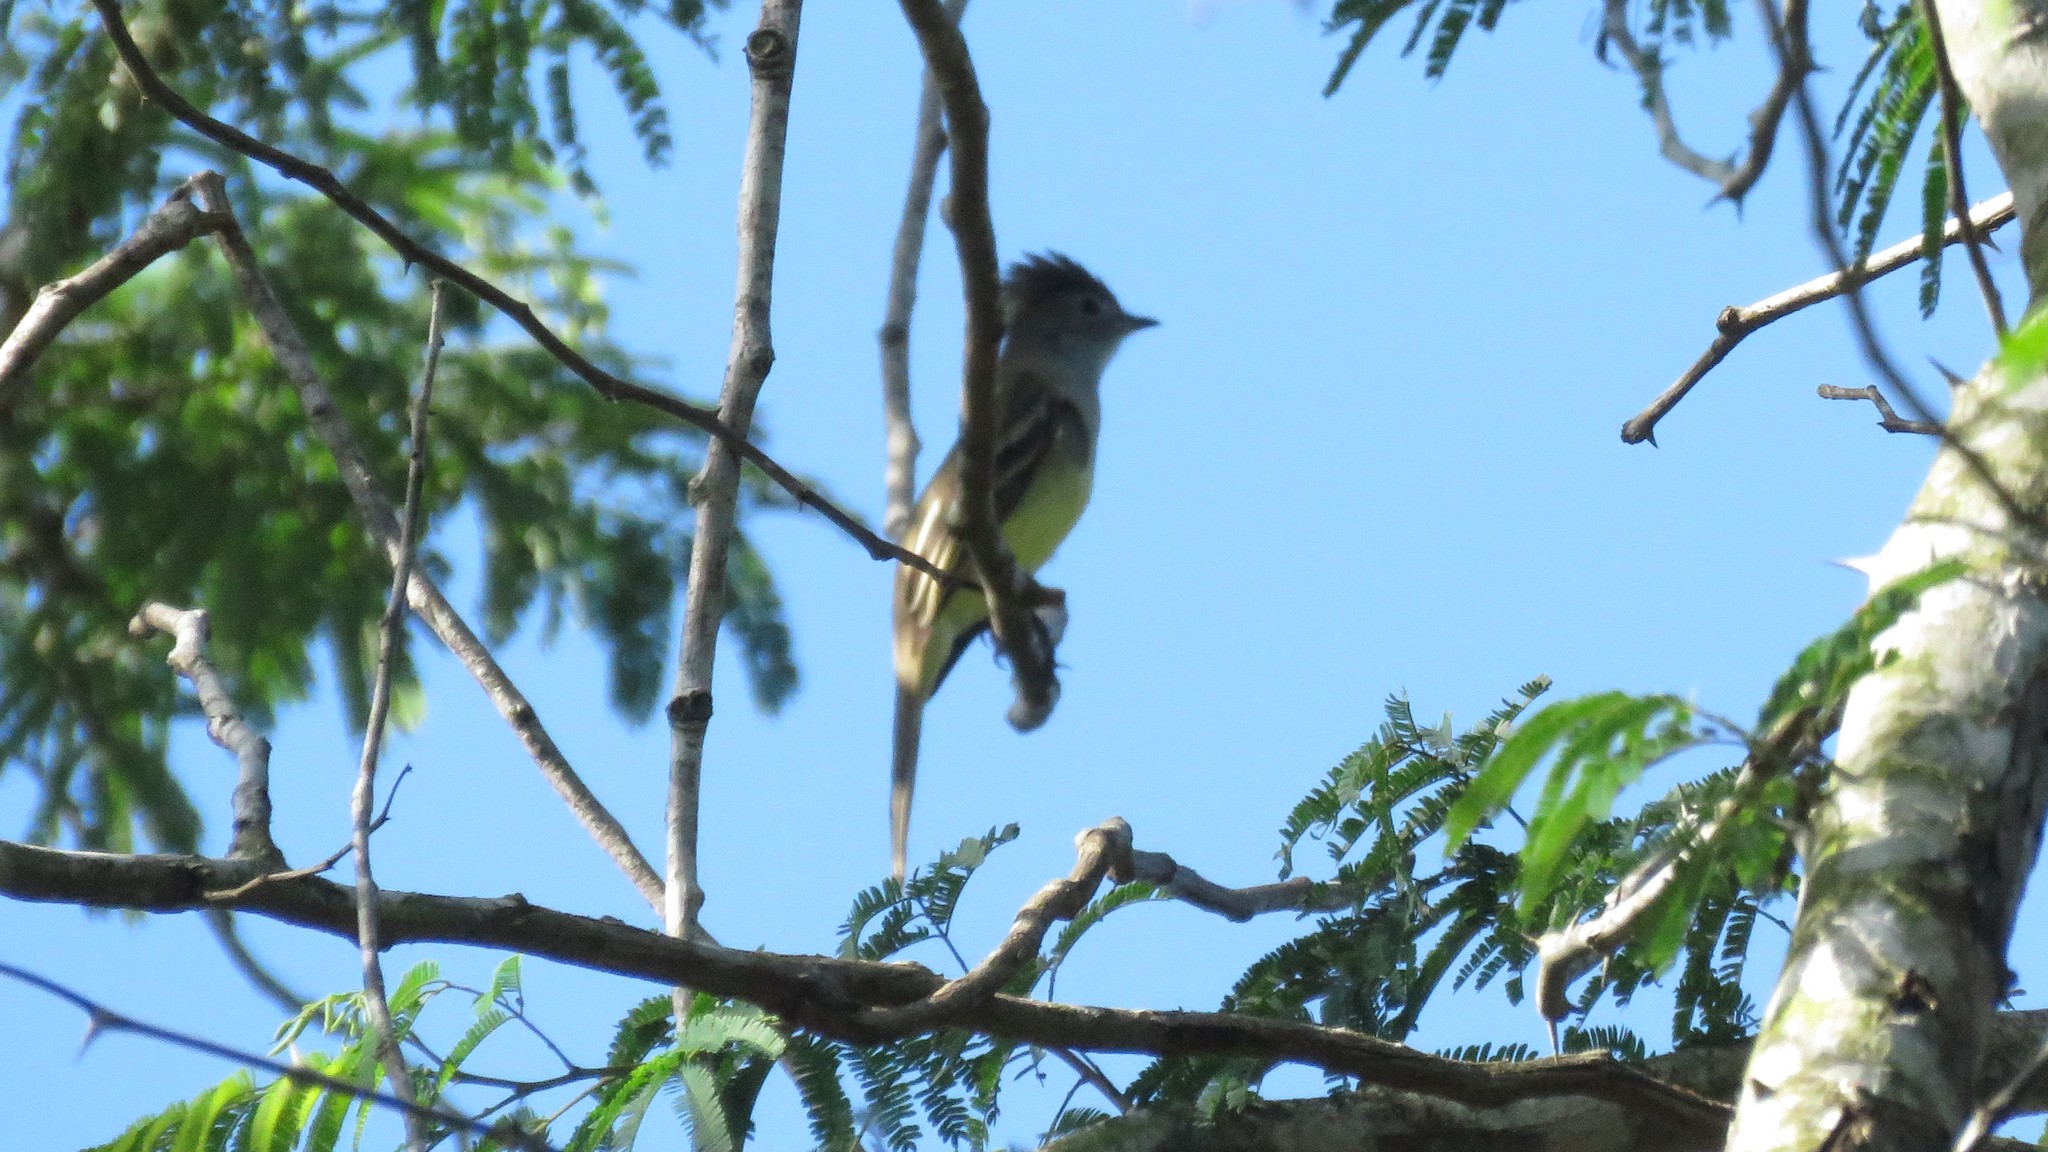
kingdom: Animalia
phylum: Chordata
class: Aves
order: Passeriformes
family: Tyrannidae
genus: Elaenia
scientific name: Elaenia flavogaster
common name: Yellow-bellied elaenia
